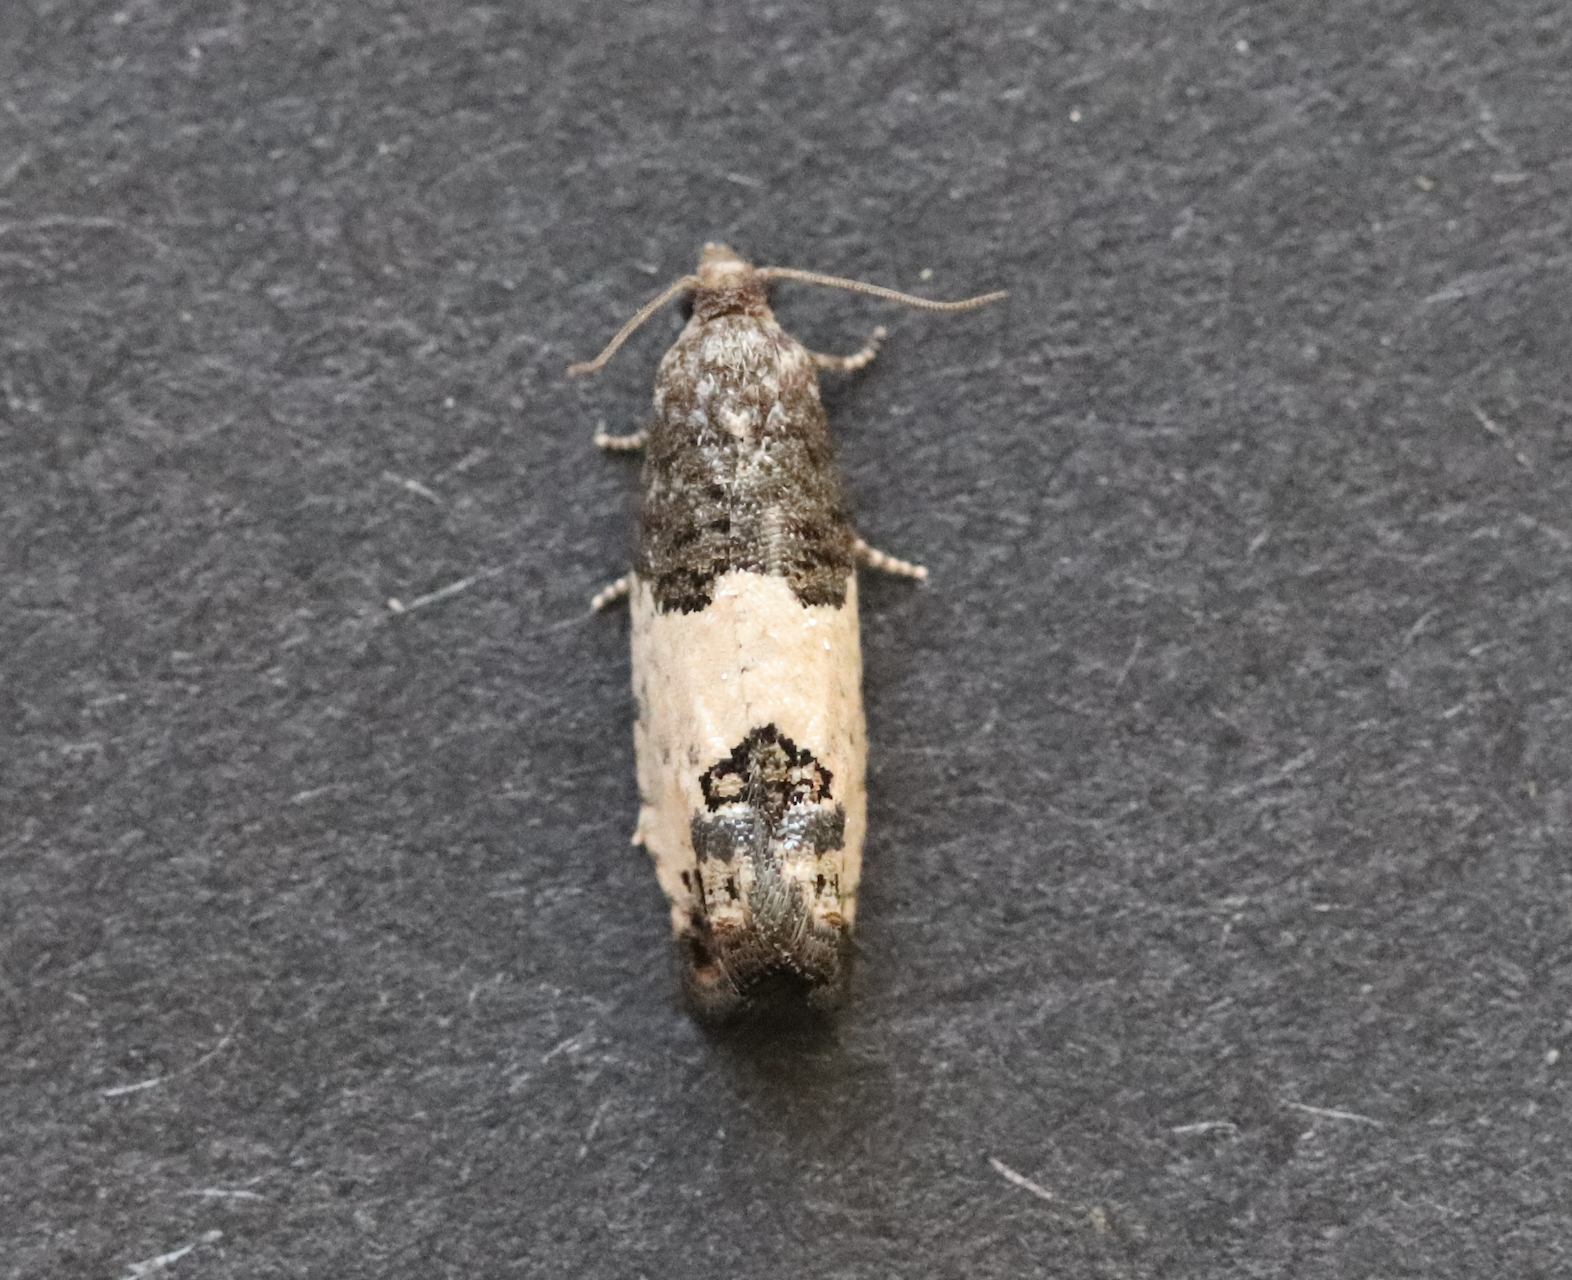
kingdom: Animalia
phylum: Arthropoda
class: Insecta
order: Lepidoptera
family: Tortricidae
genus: Spilonota
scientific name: Spilonota ocellana
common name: Bud moth
